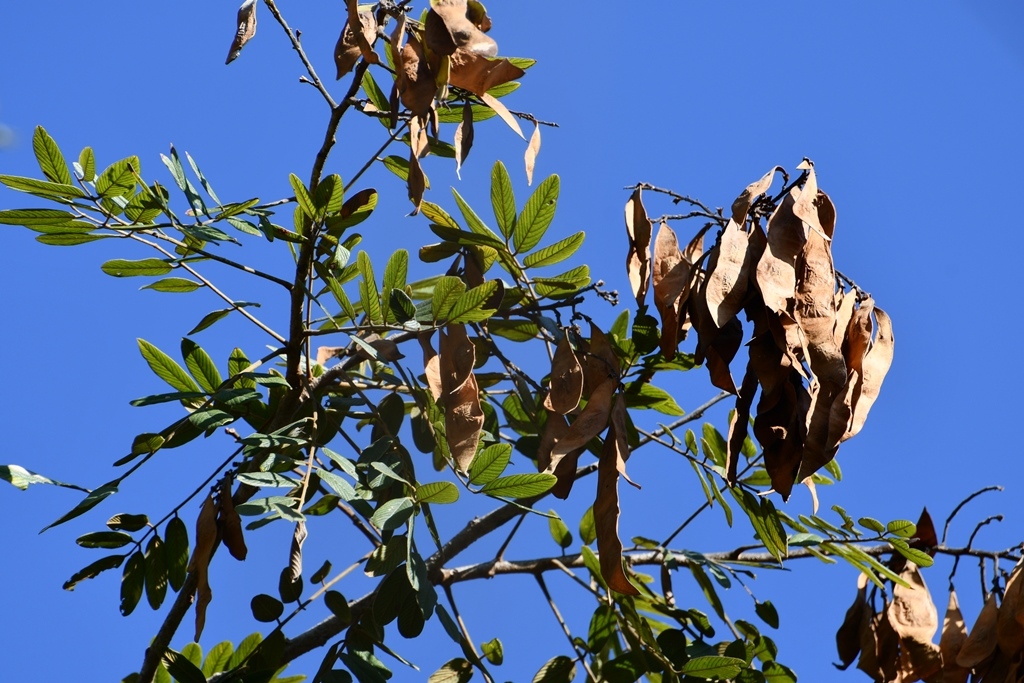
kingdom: Plantae
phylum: Tracheophyta
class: Magnoliopsida
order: Fabales
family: Fabaceae
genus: Lonchocarpus
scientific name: Lonchocarpus rugosus
